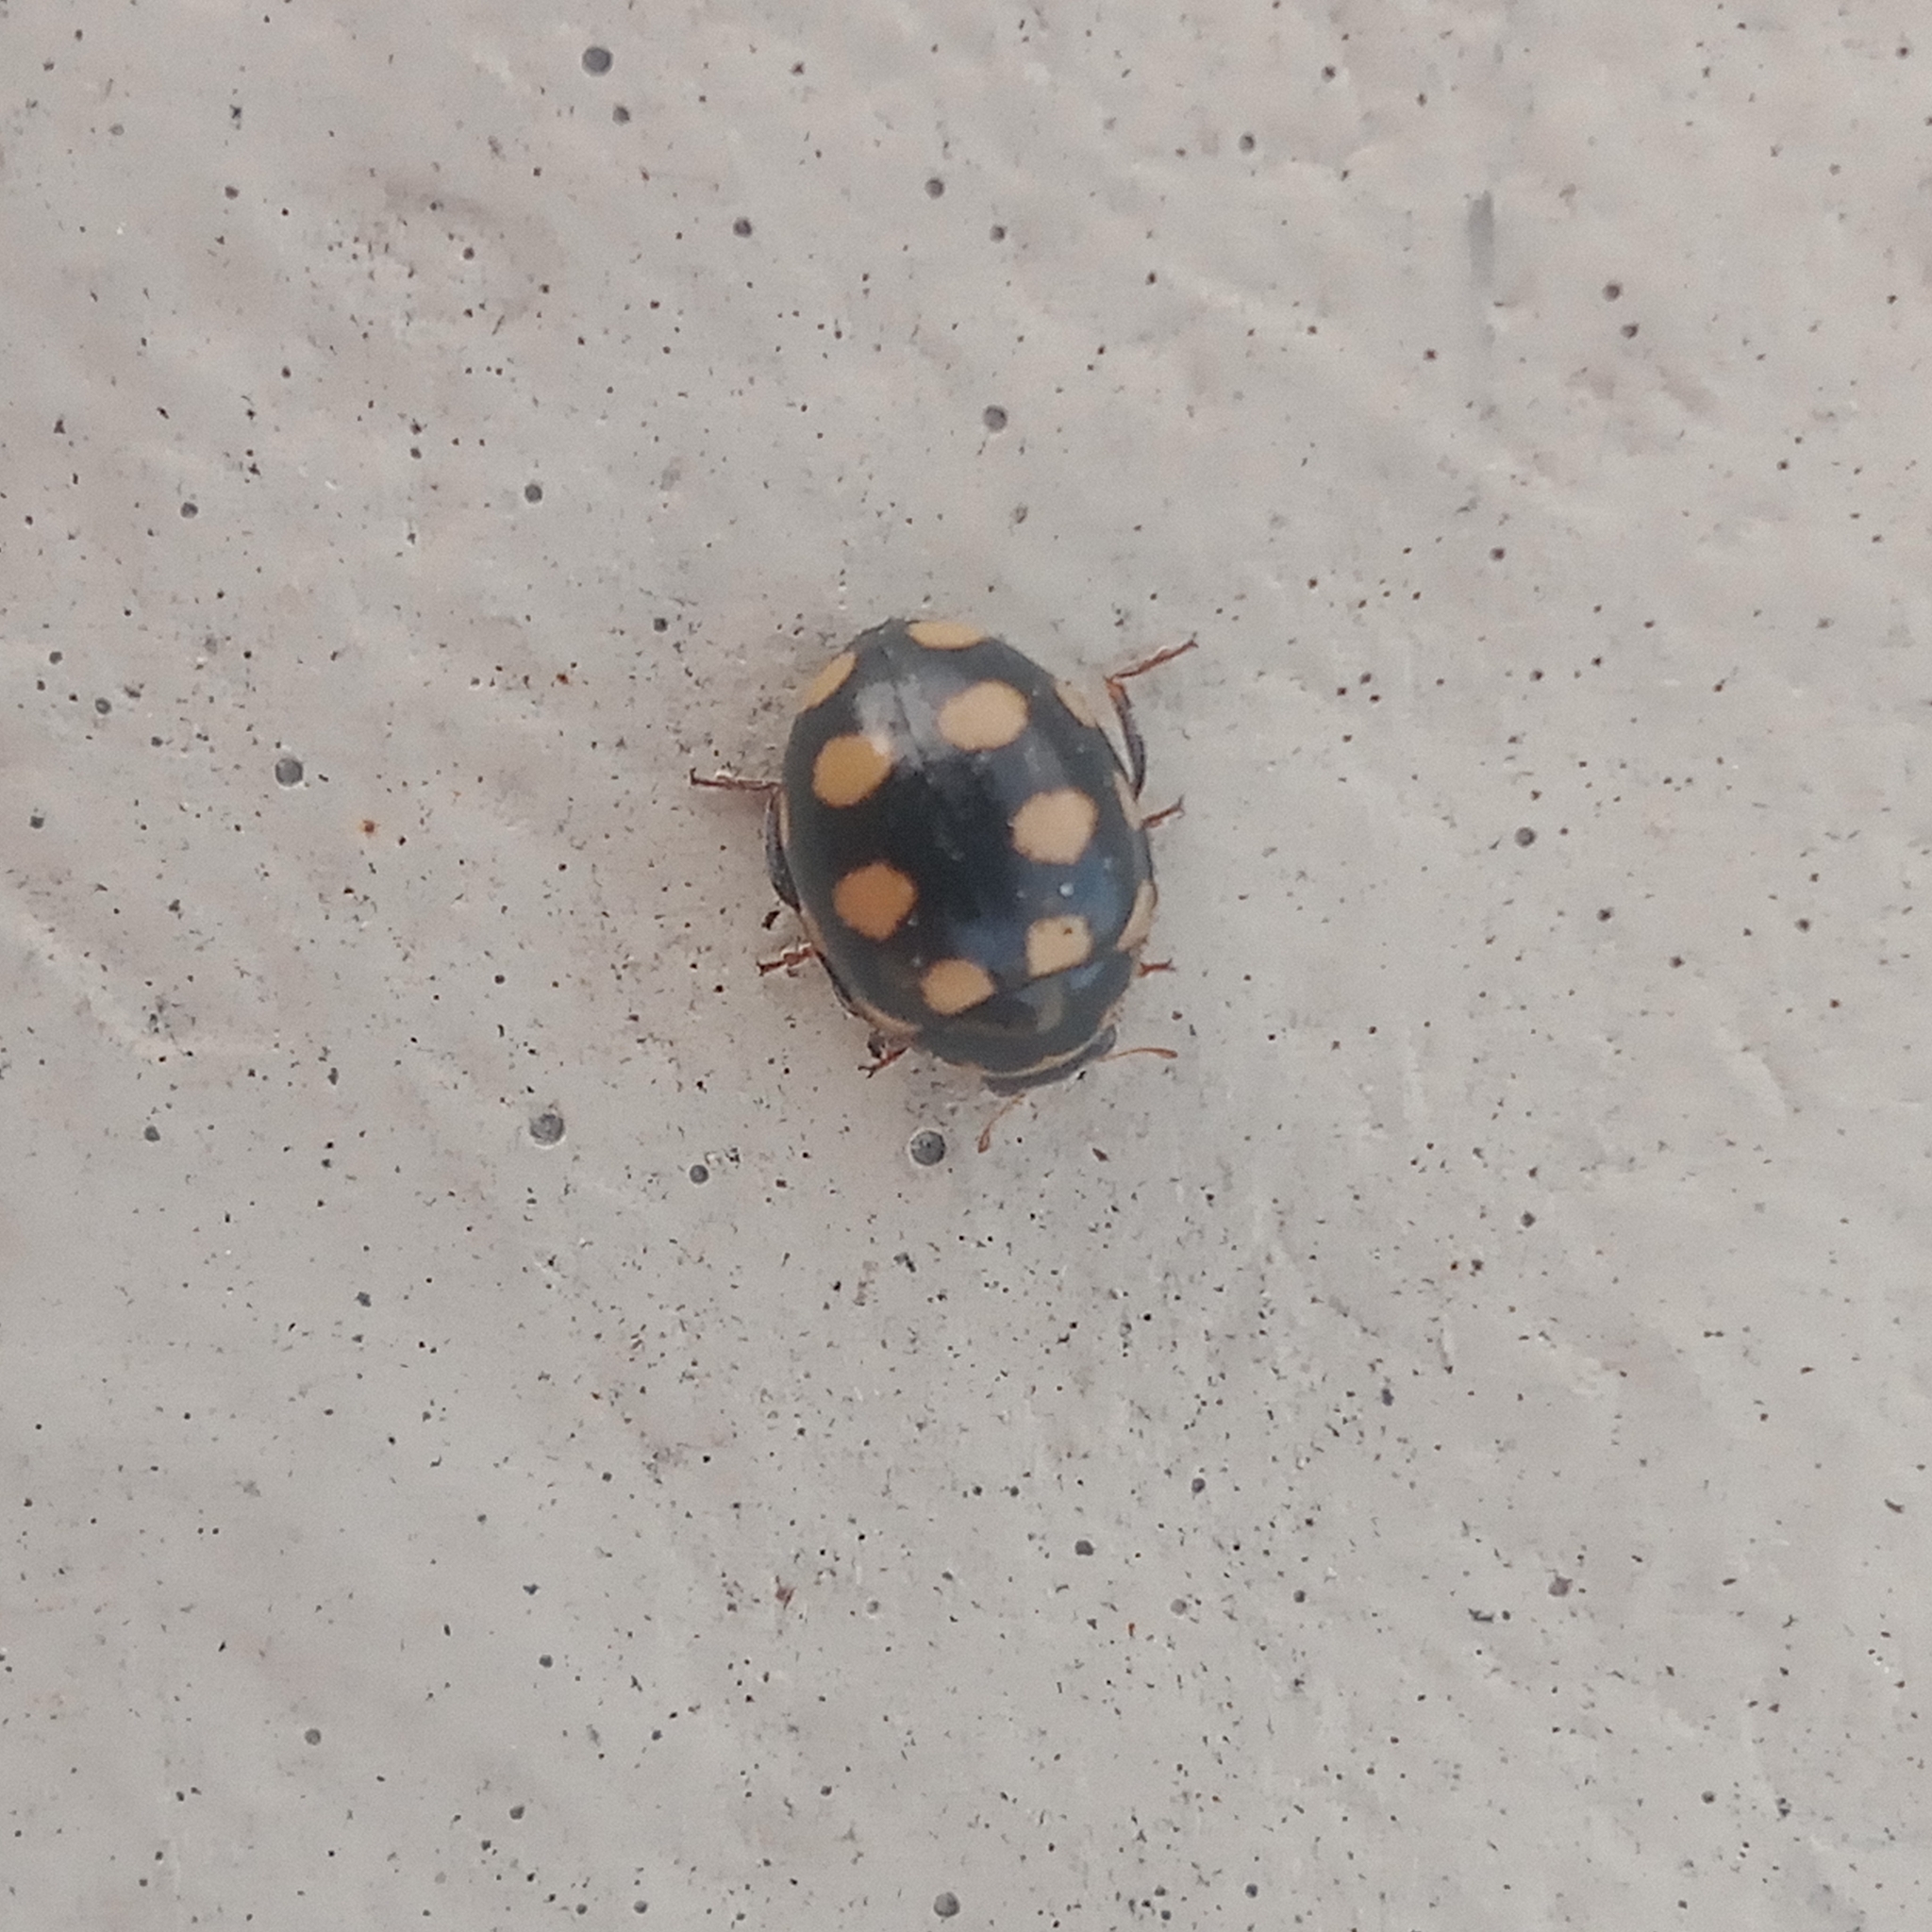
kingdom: Animalia
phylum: Arthropoda
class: Insecta
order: Coleoptera
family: Coccinellidae
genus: Coccinula
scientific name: Coccinula quatuordecimpustulata
